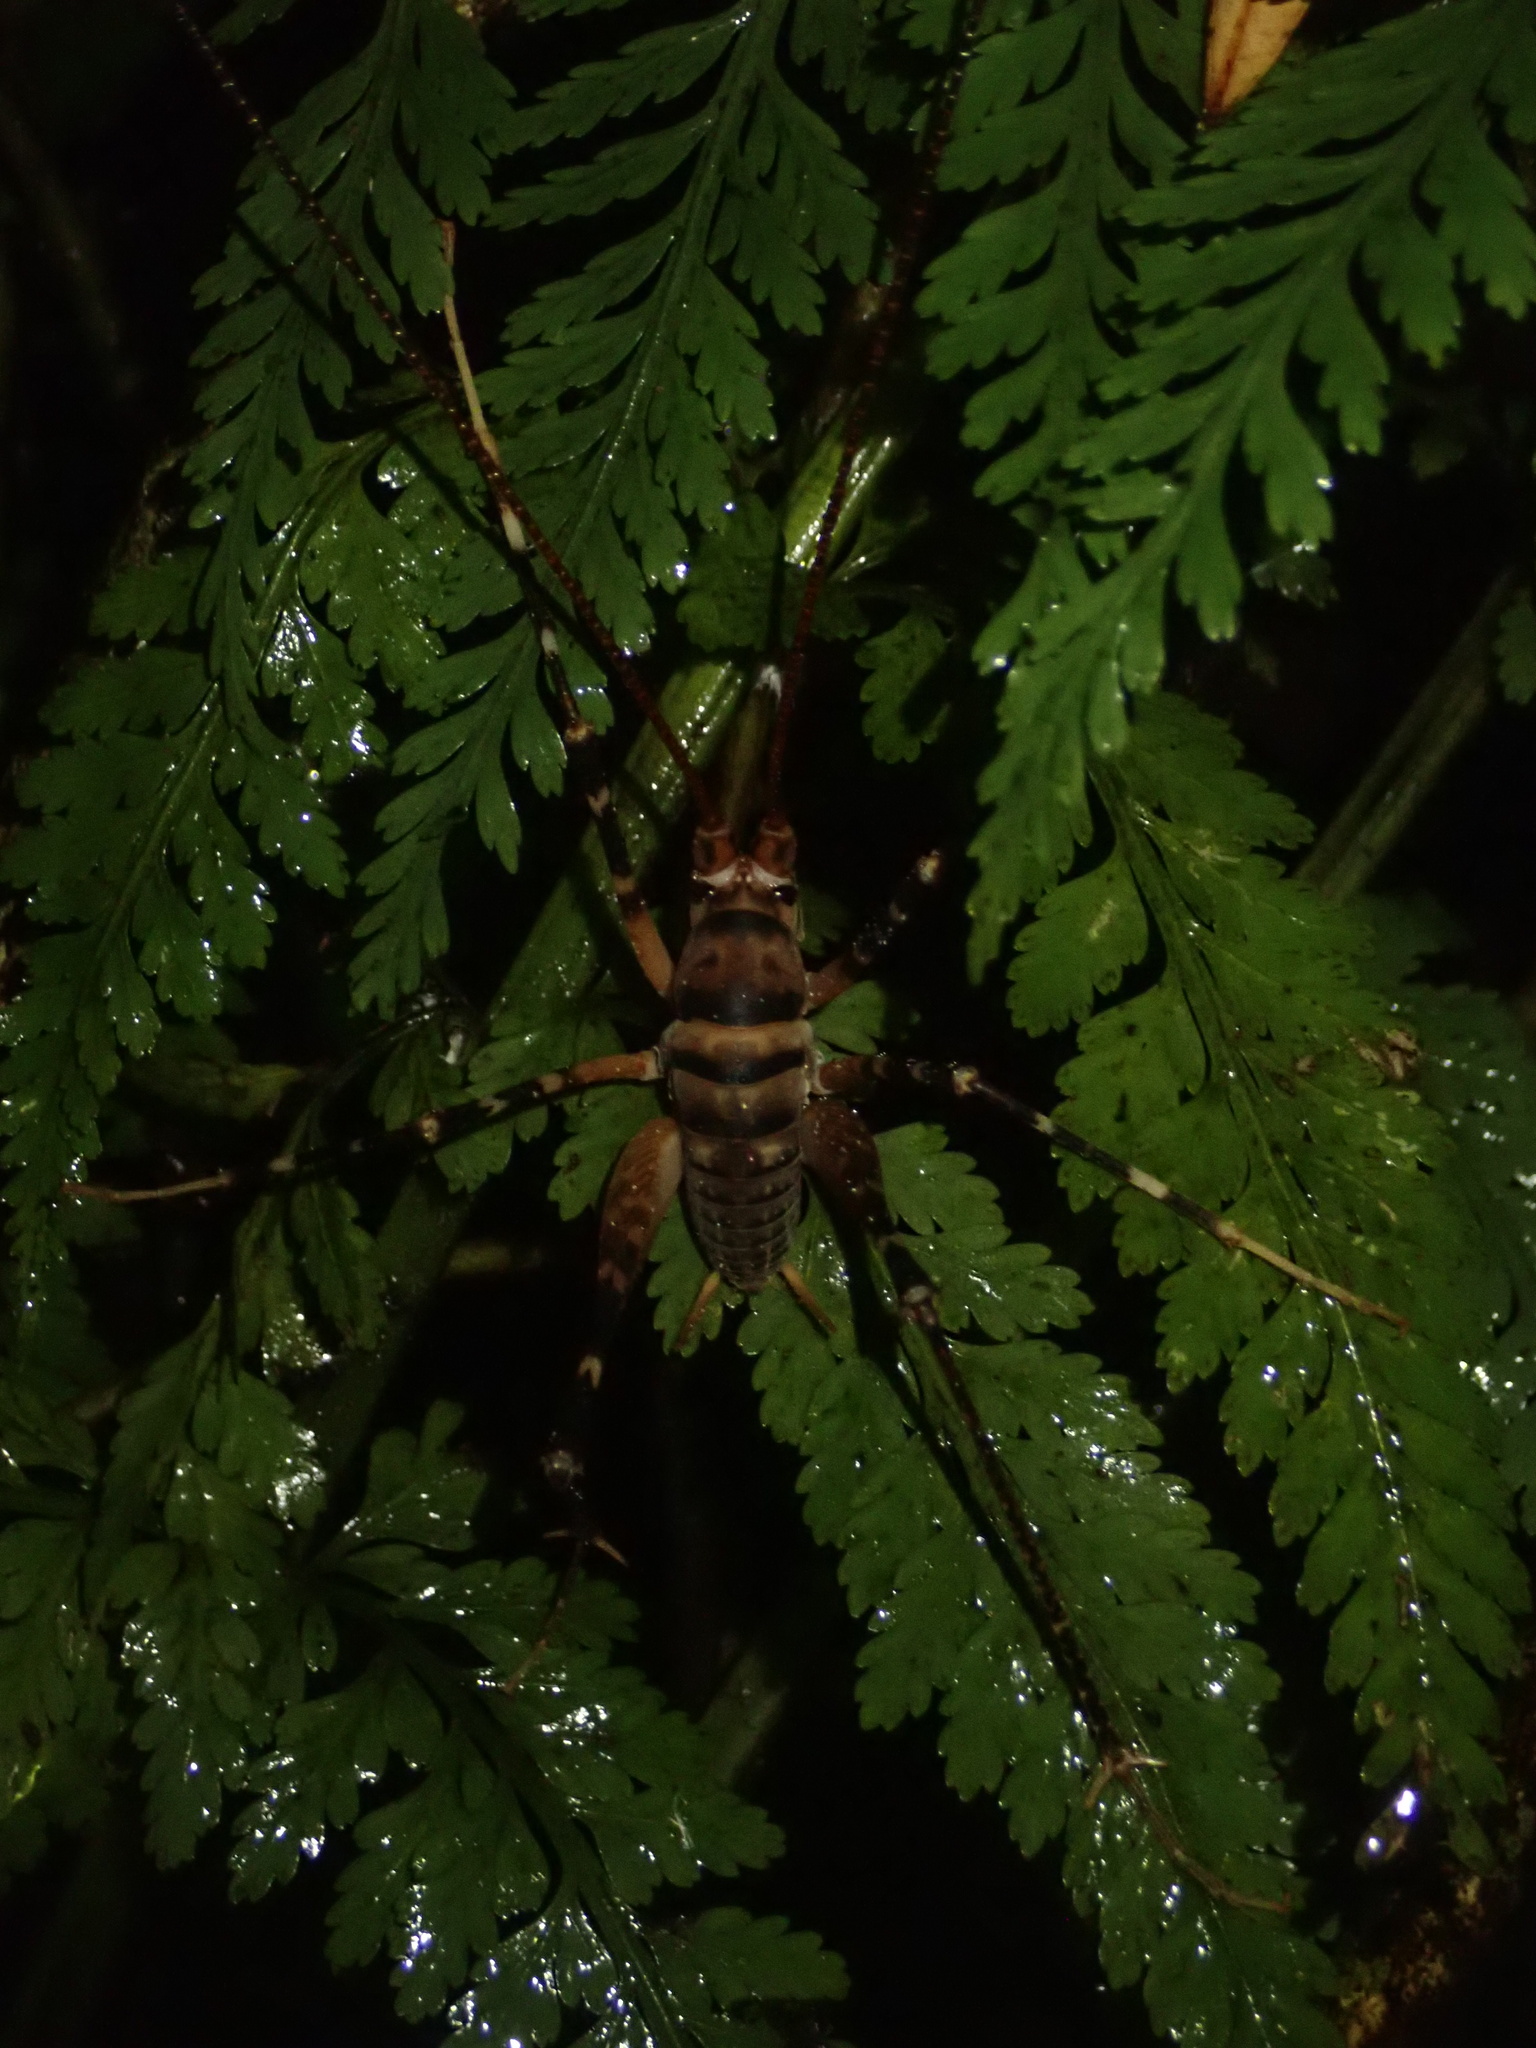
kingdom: Animalia
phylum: Arthropoda
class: Insecta
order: Orthoptera
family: Rhaphidophoridae
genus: Pachyrhamma
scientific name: Pachyrhamma edwardsii
